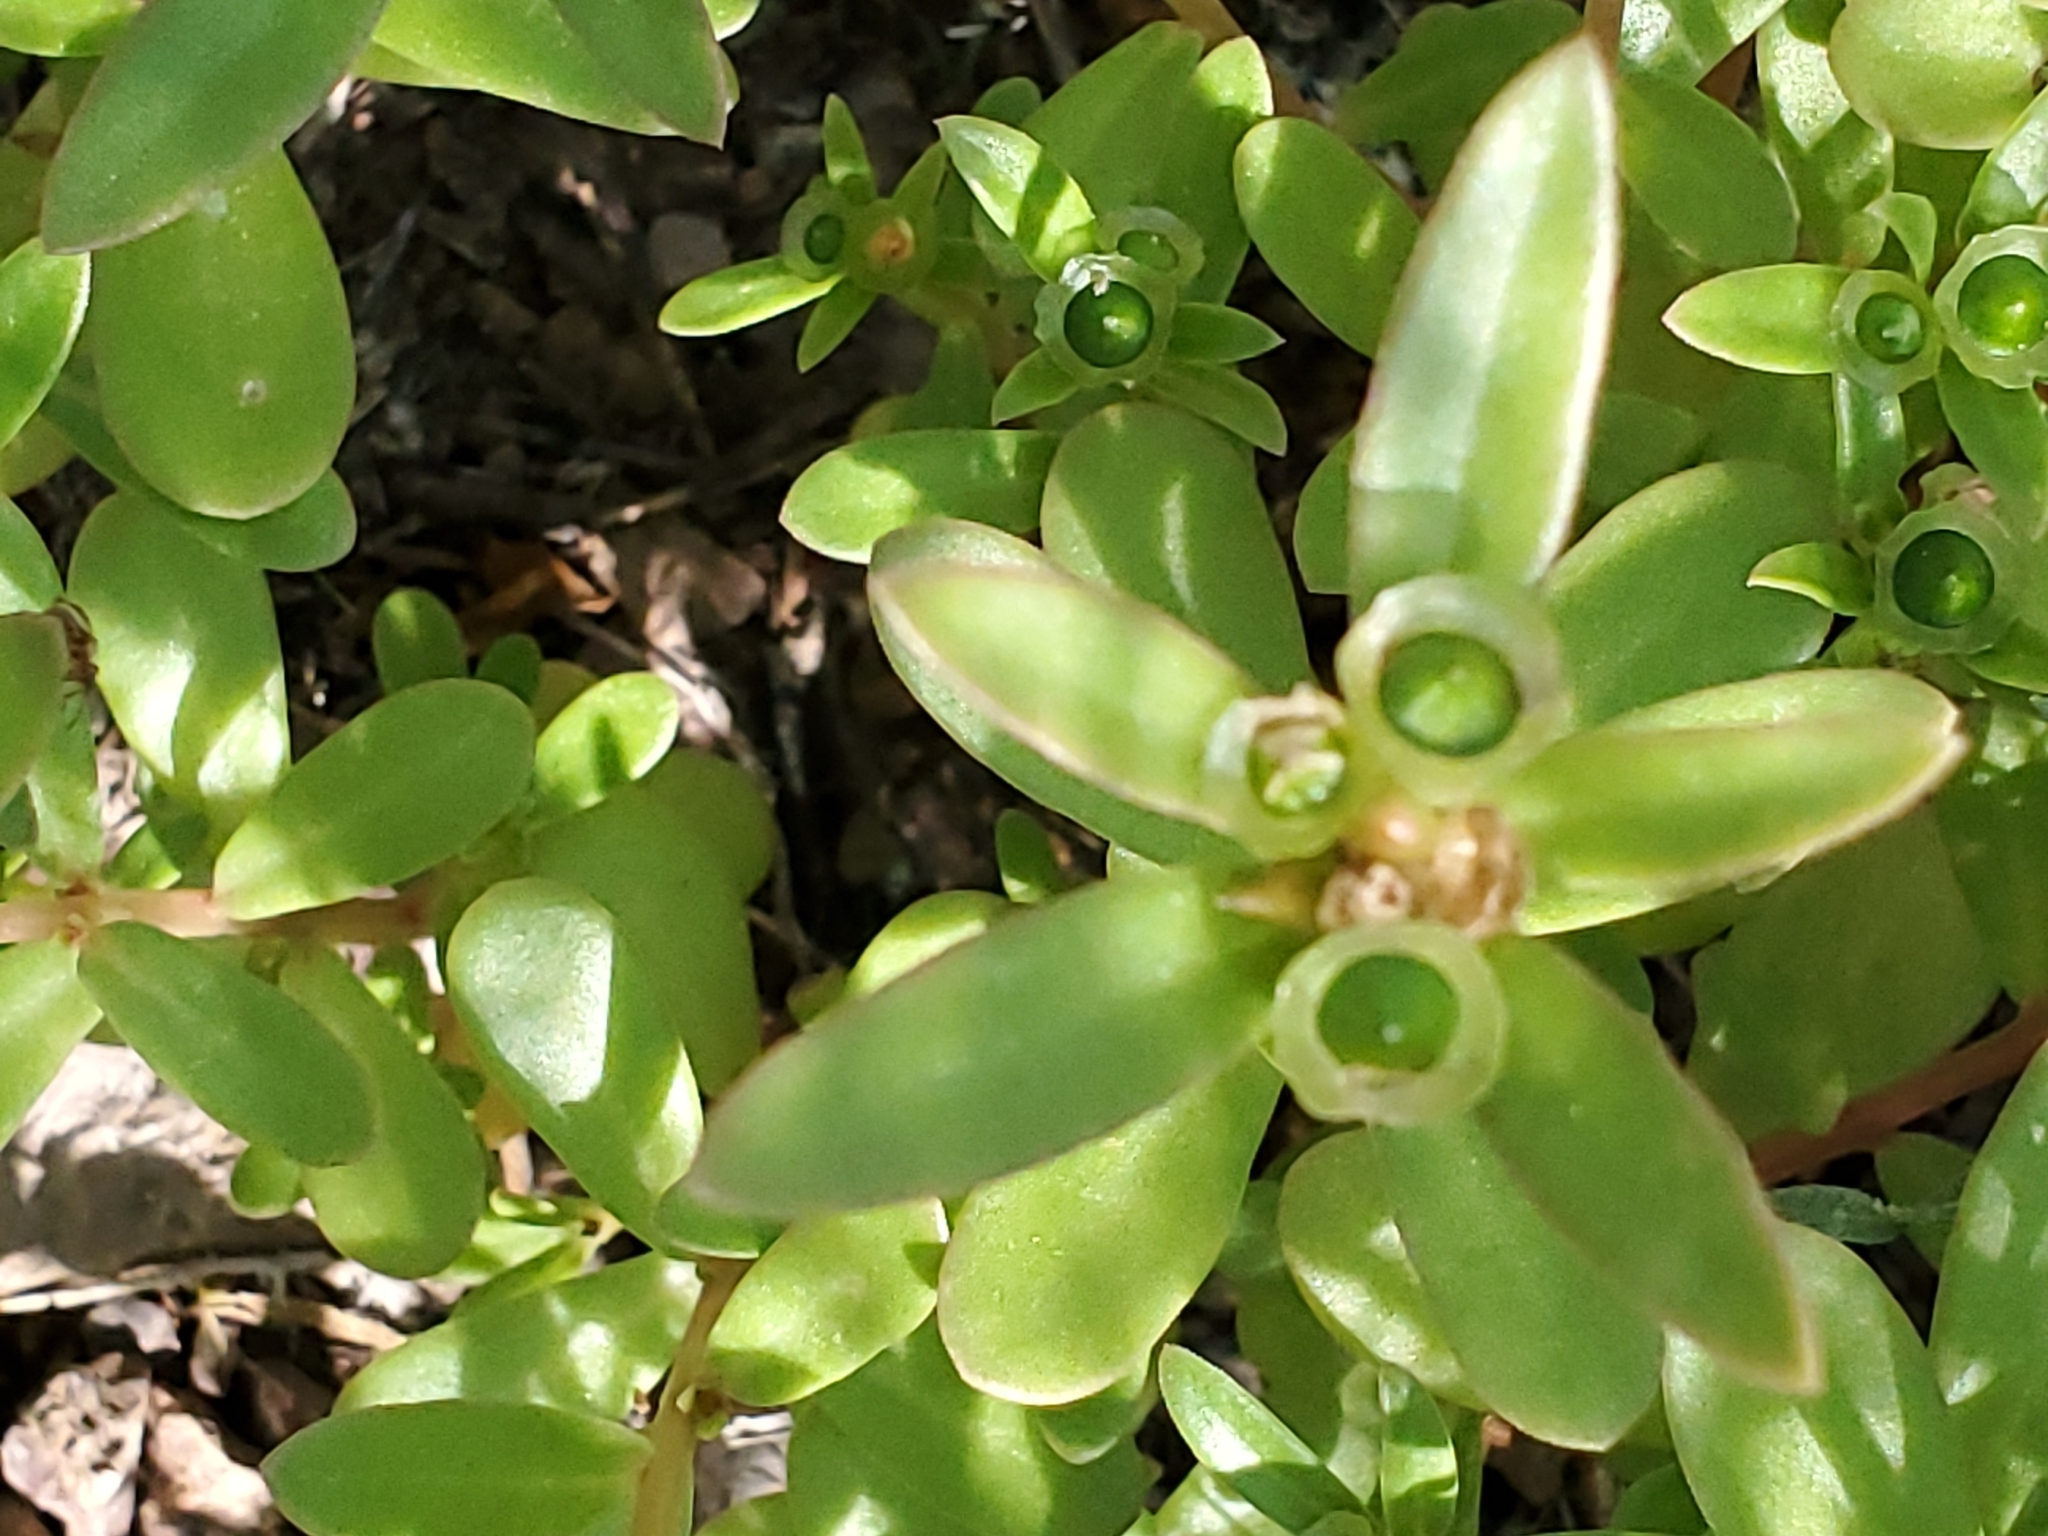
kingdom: Plantae
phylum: Tracheophyta
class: Magnoliopsida
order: Caryophyllales
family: Portulacaceae
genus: Portulaca
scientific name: Portulaca umbraticola
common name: Wingpod purslane
